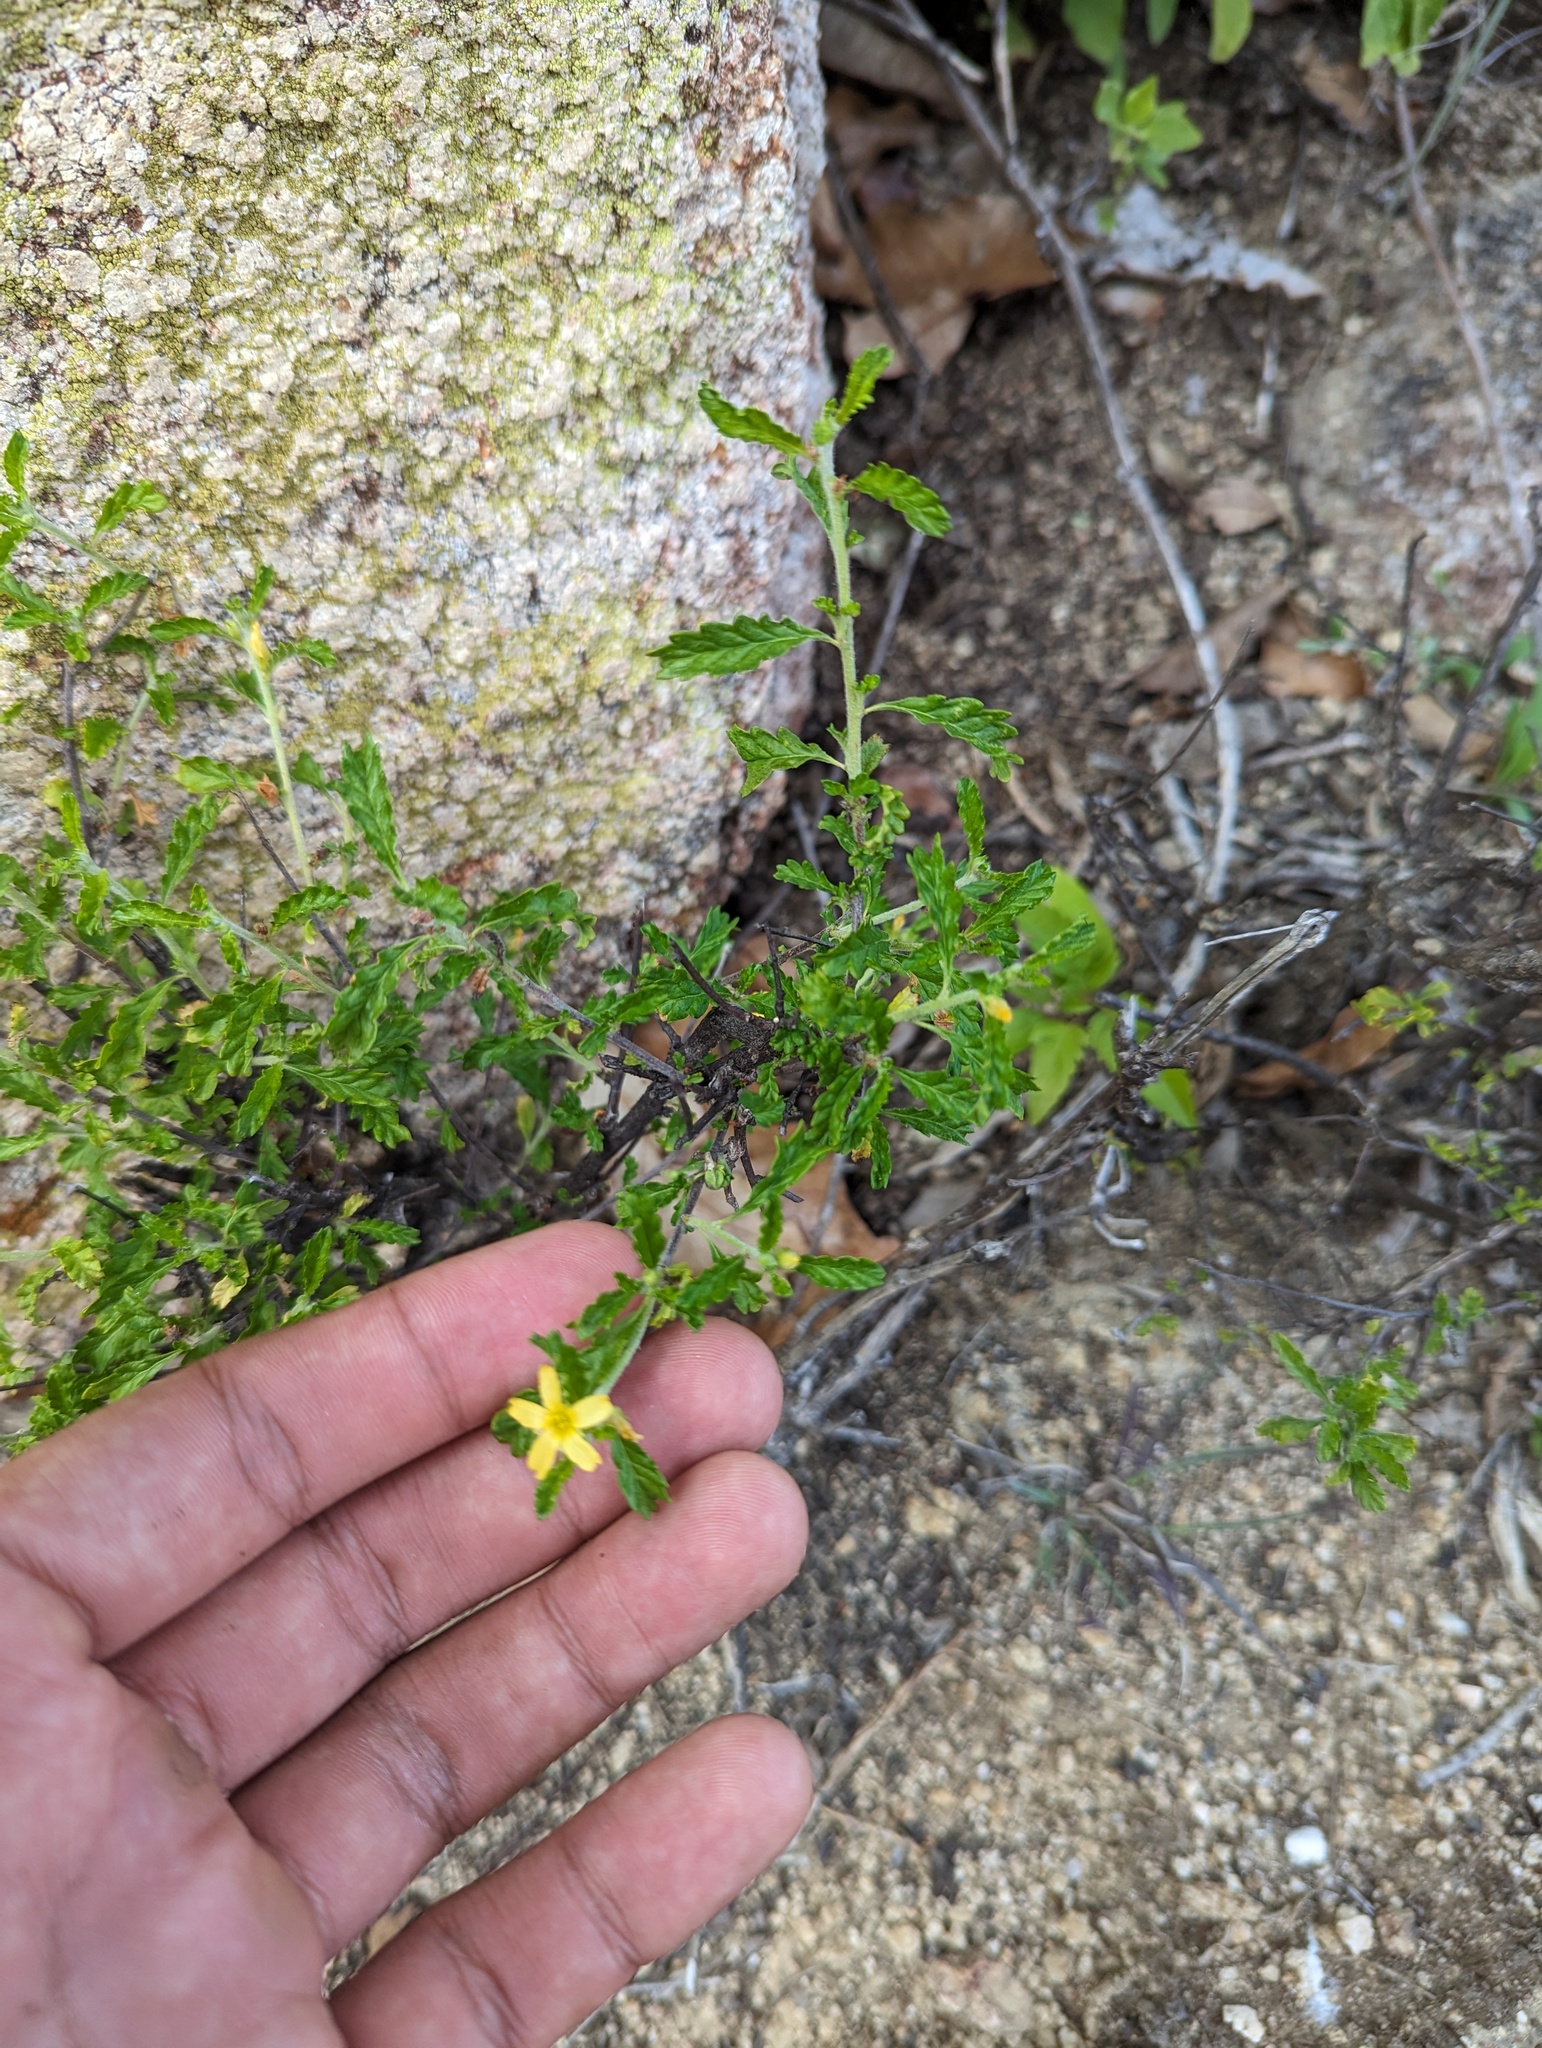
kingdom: Plantae
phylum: Tracheophyta
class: Magnoliopsida
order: Malpighiales
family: Turneraceae
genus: Turnera
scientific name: Turnera diffusa
